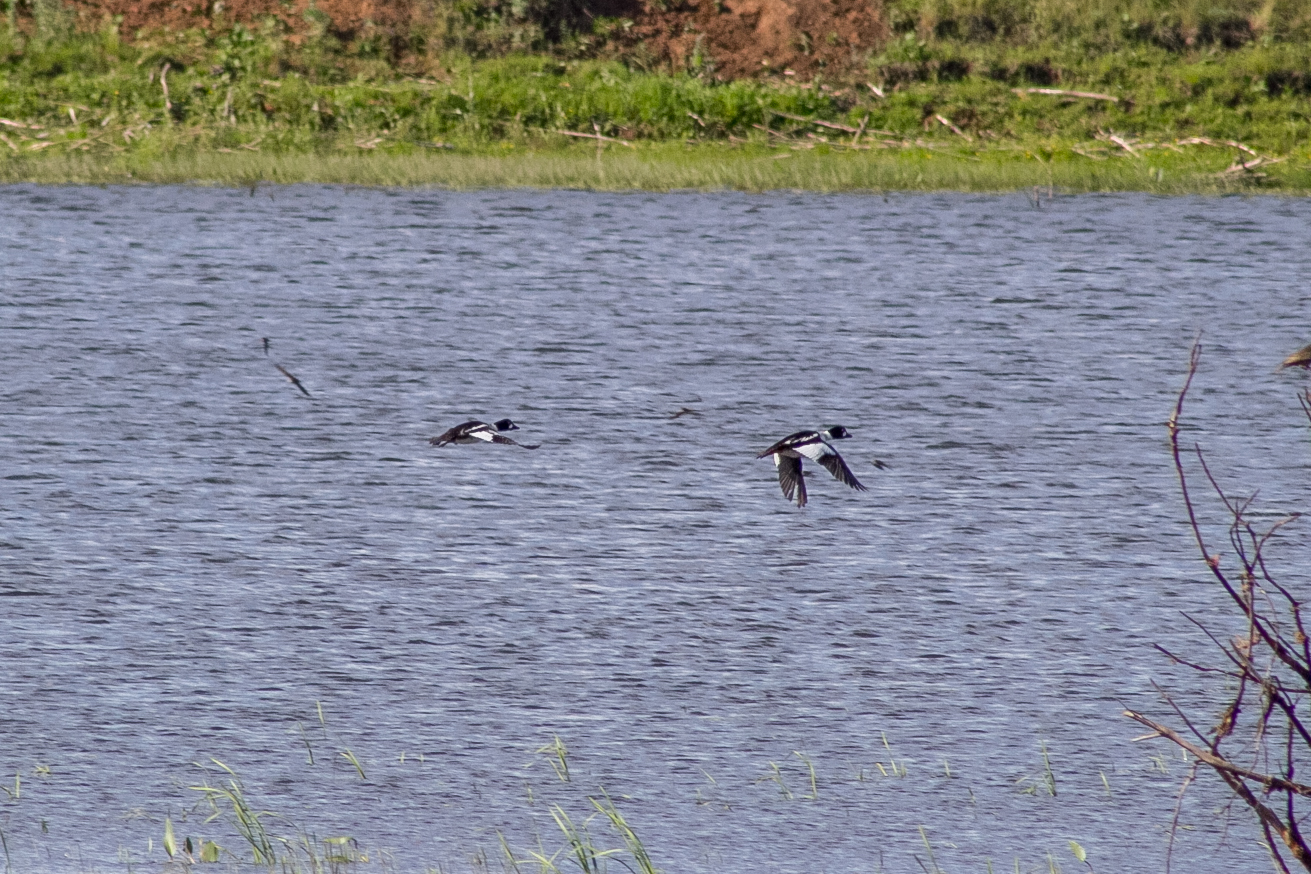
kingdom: Animalia
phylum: Chordata
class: Aves
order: Anseriformes
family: Anatidae
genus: Bucephala
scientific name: Bucephala clangula
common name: Common goldeneye
